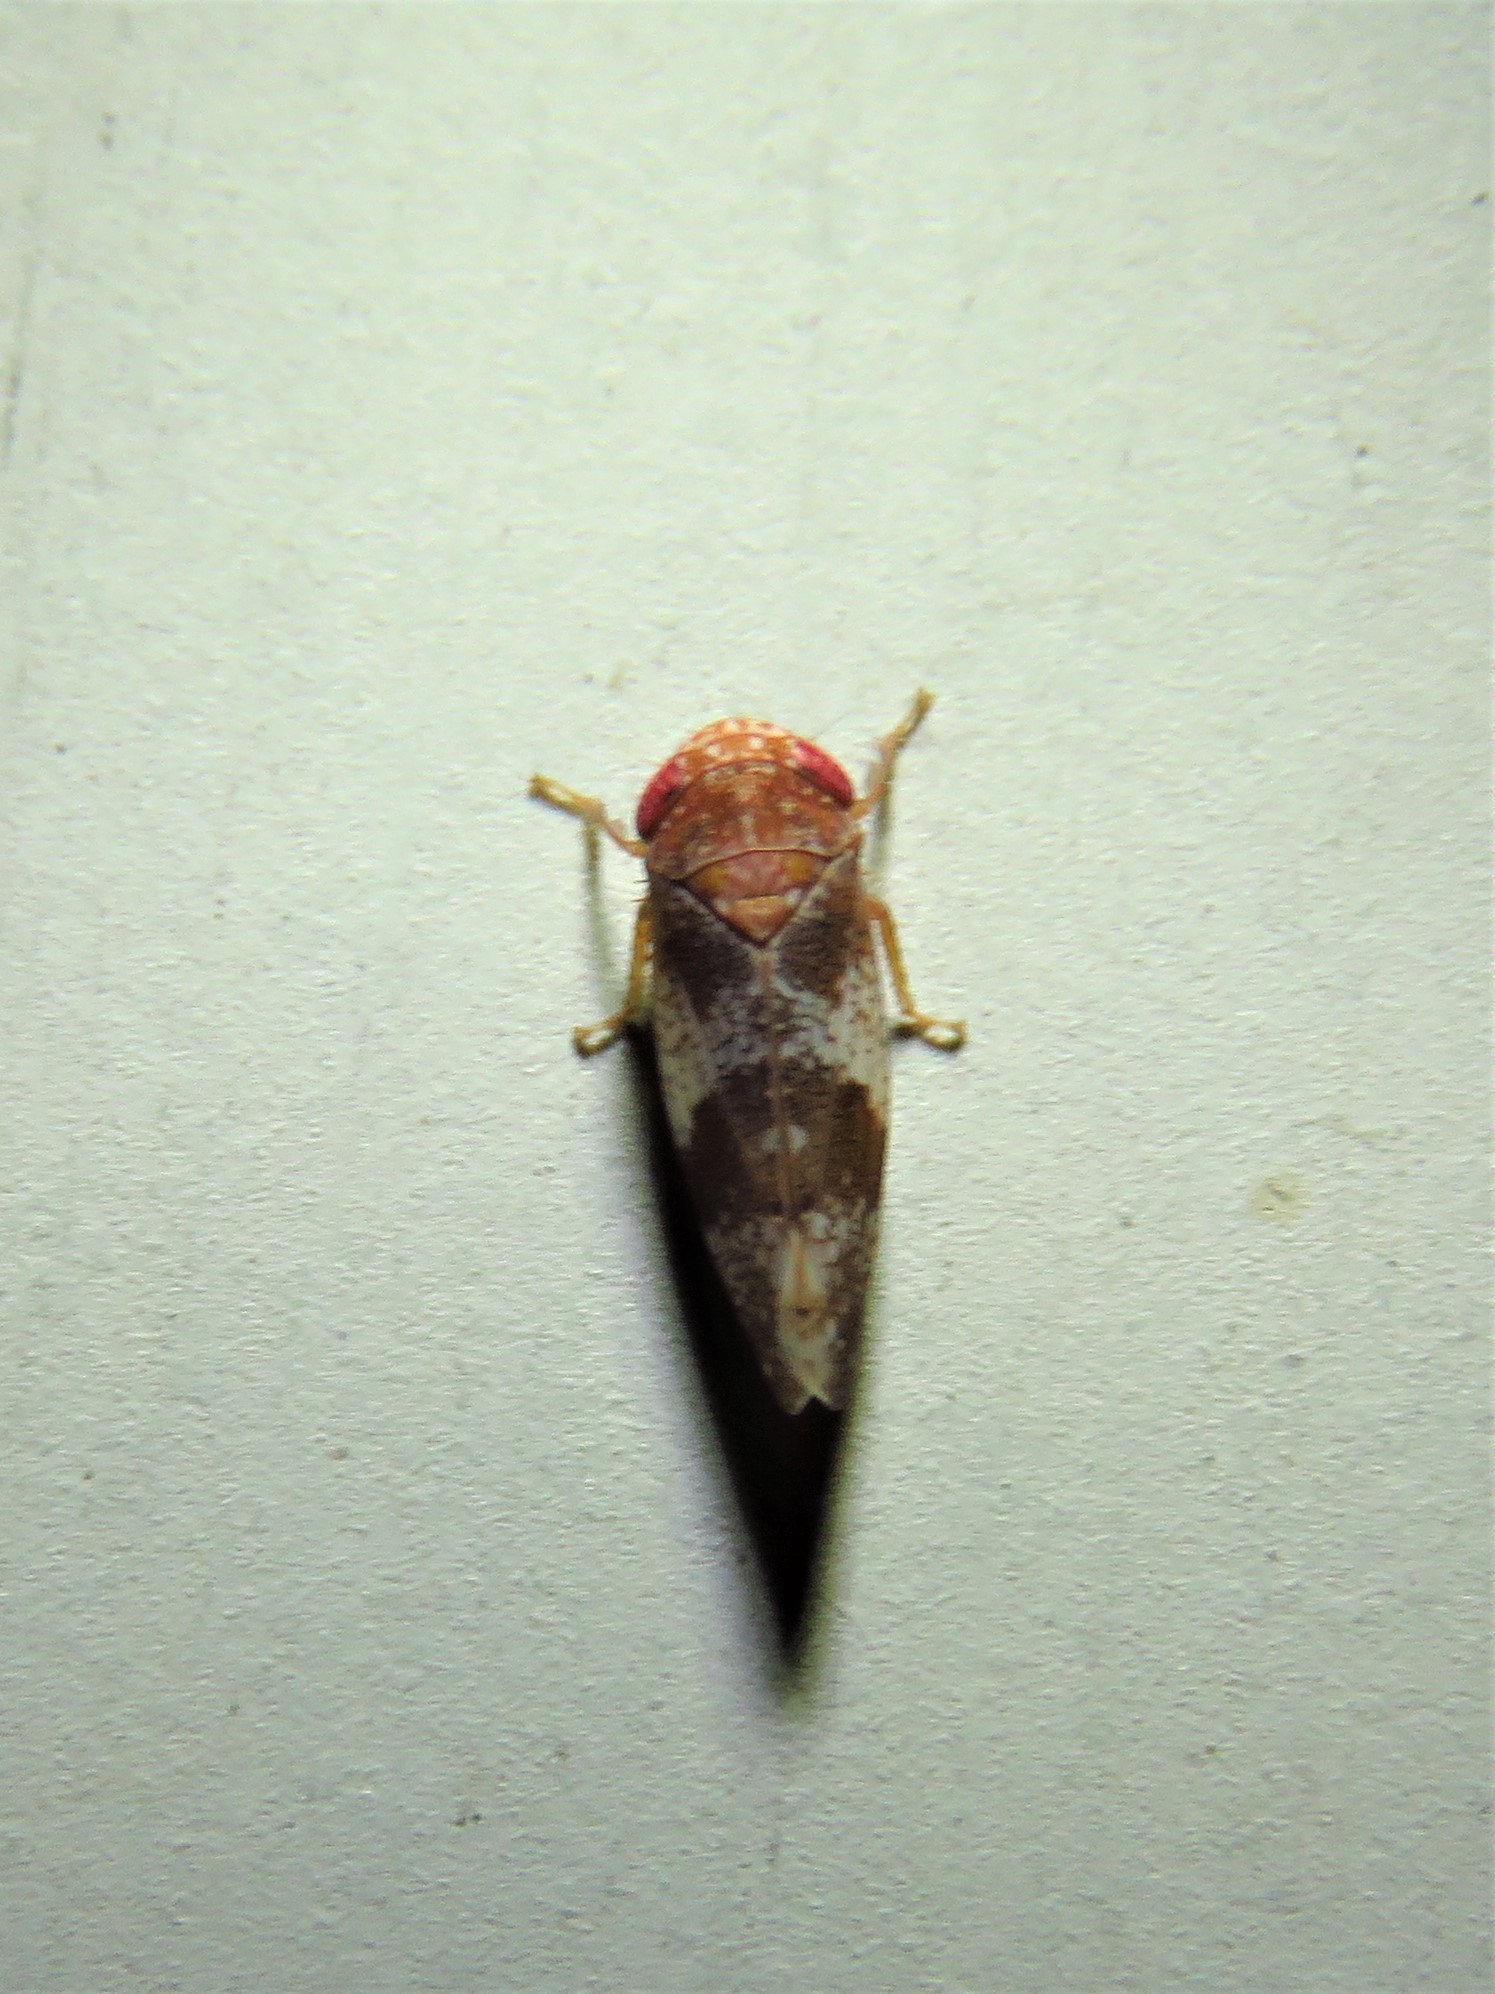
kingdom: Animalia
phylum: Arthropoda
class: Insecta
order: Hemiptera
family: Cicadellidae
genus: Norvellina
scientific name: Norvellina helenae
